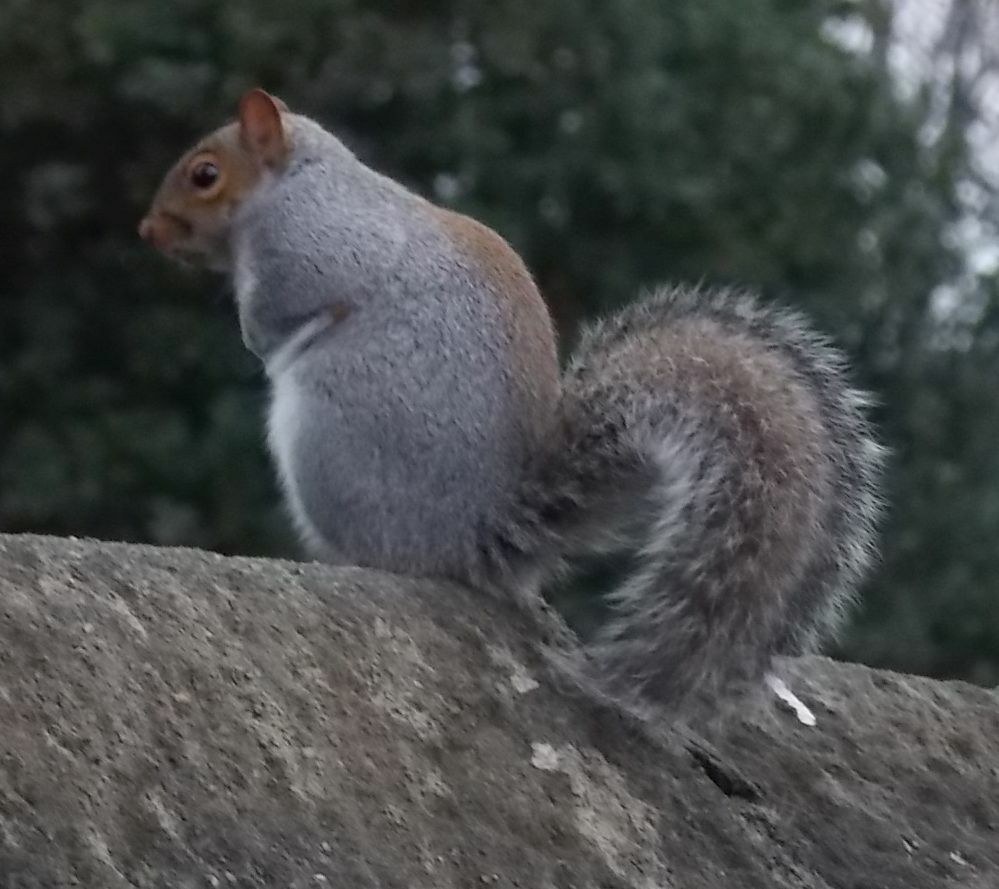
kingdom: Animalia
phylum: Chordata
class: Mammalia
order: Rodentia
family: Sciuridae
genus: Sciurus
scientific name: Sciurus carolinensis
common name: Eastern gray squirrel
